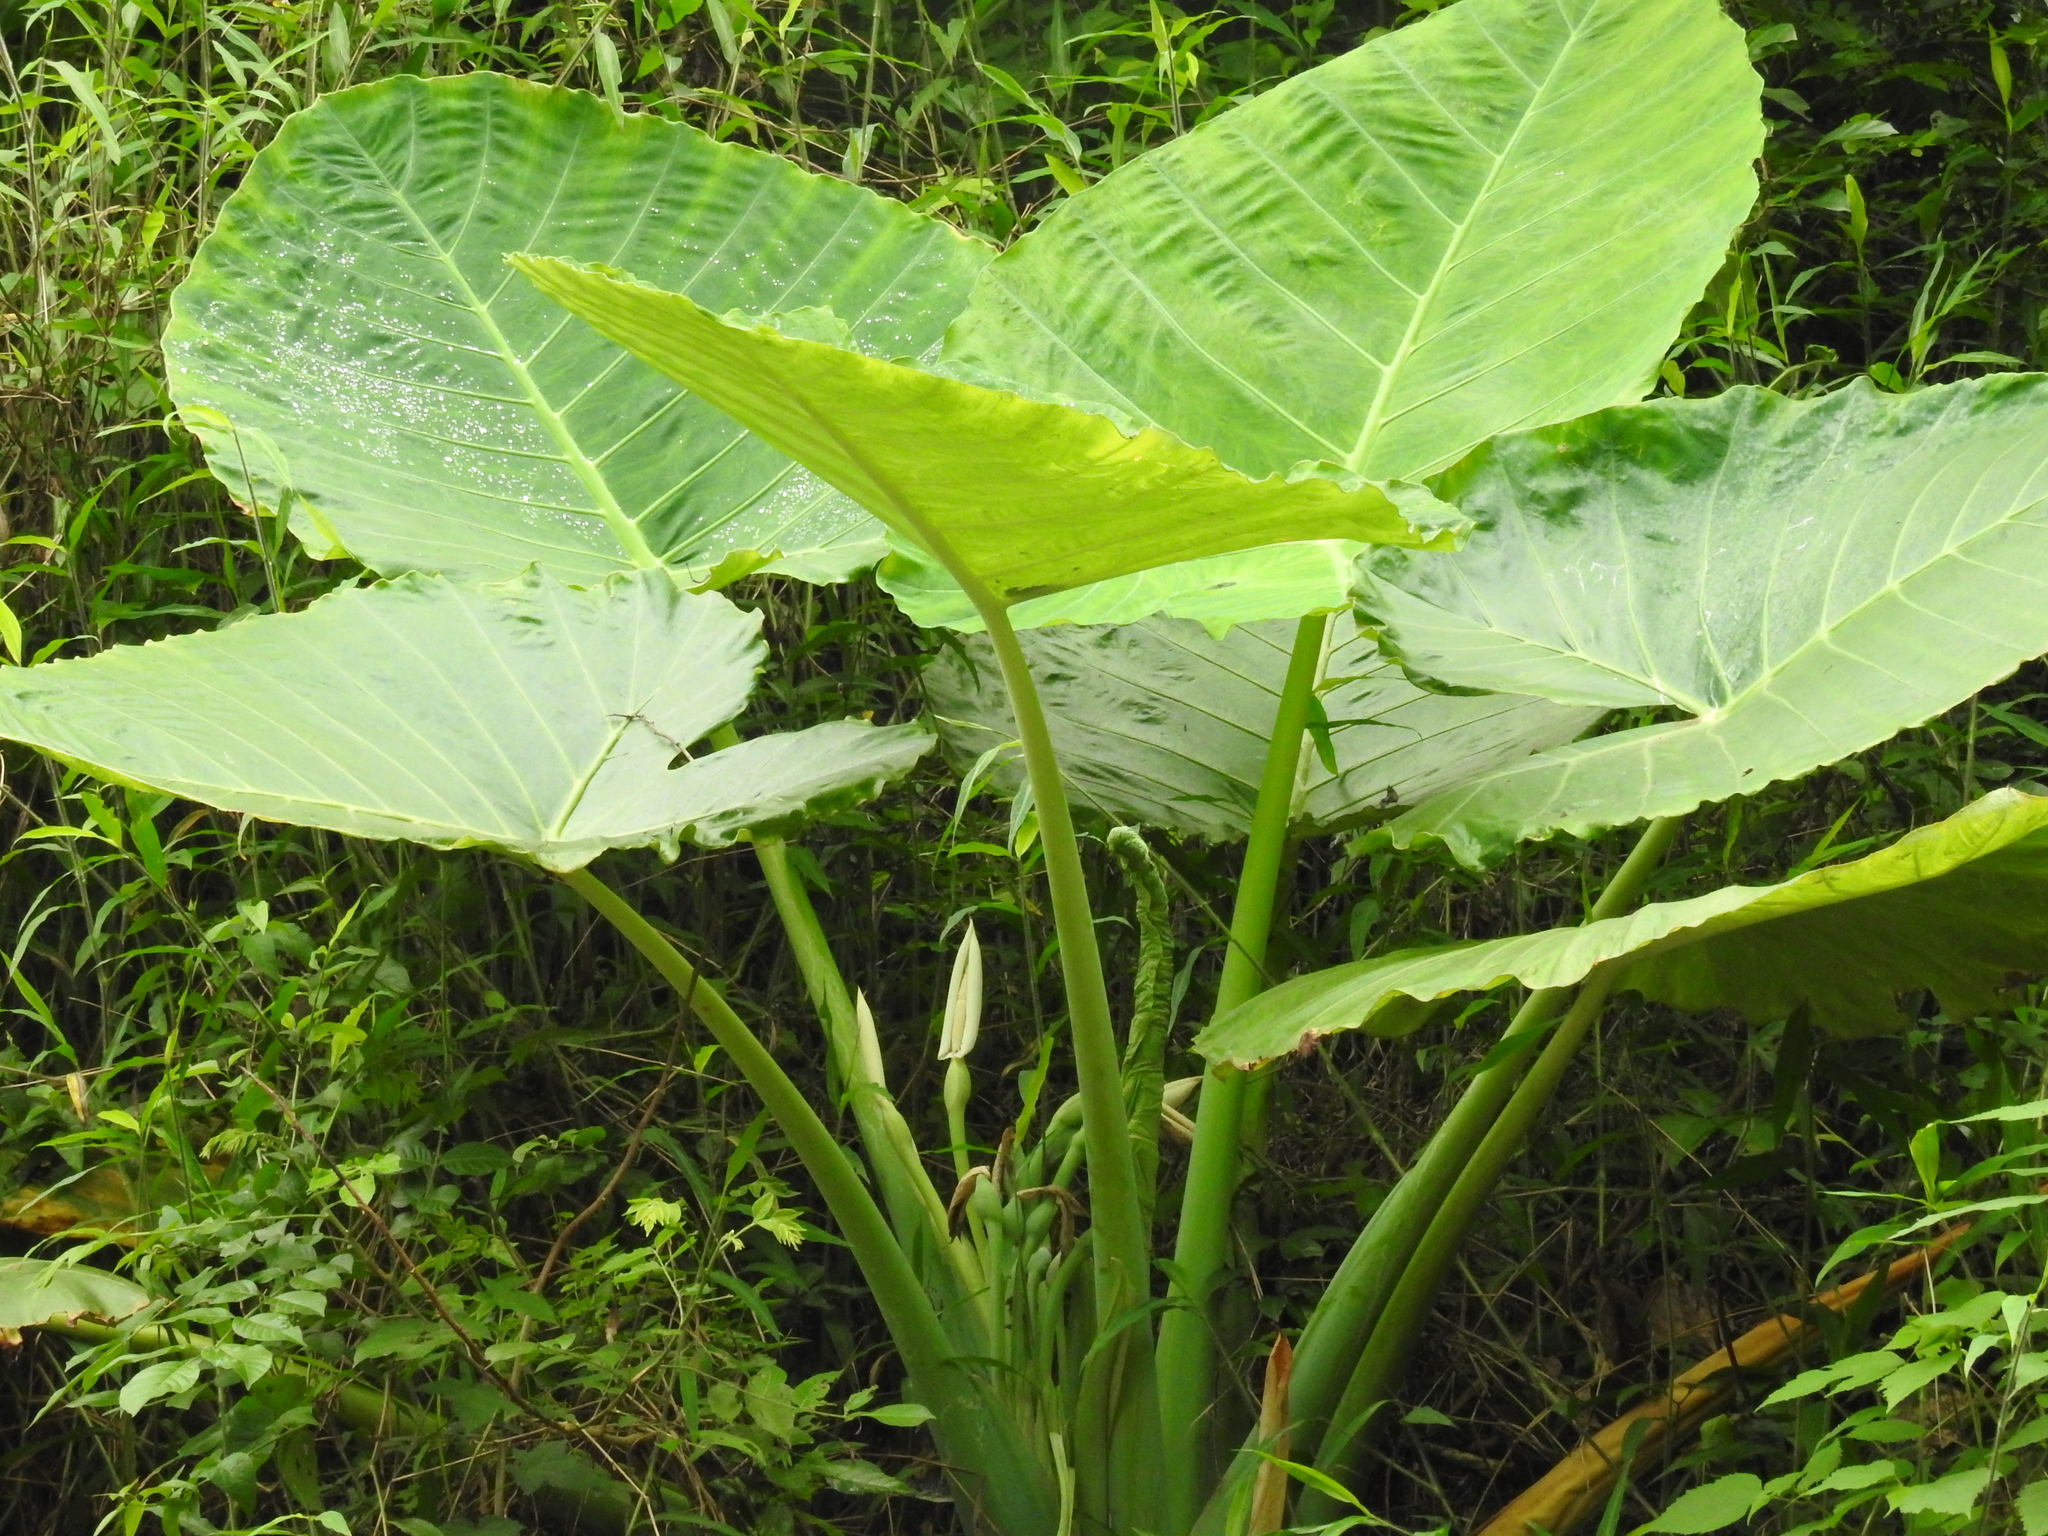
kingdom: Plantae
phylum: Tracheophyta
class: Liliopsida
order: Alismatales
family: Araceae
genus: Leucocasia
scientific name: Leucocasia gigantea
